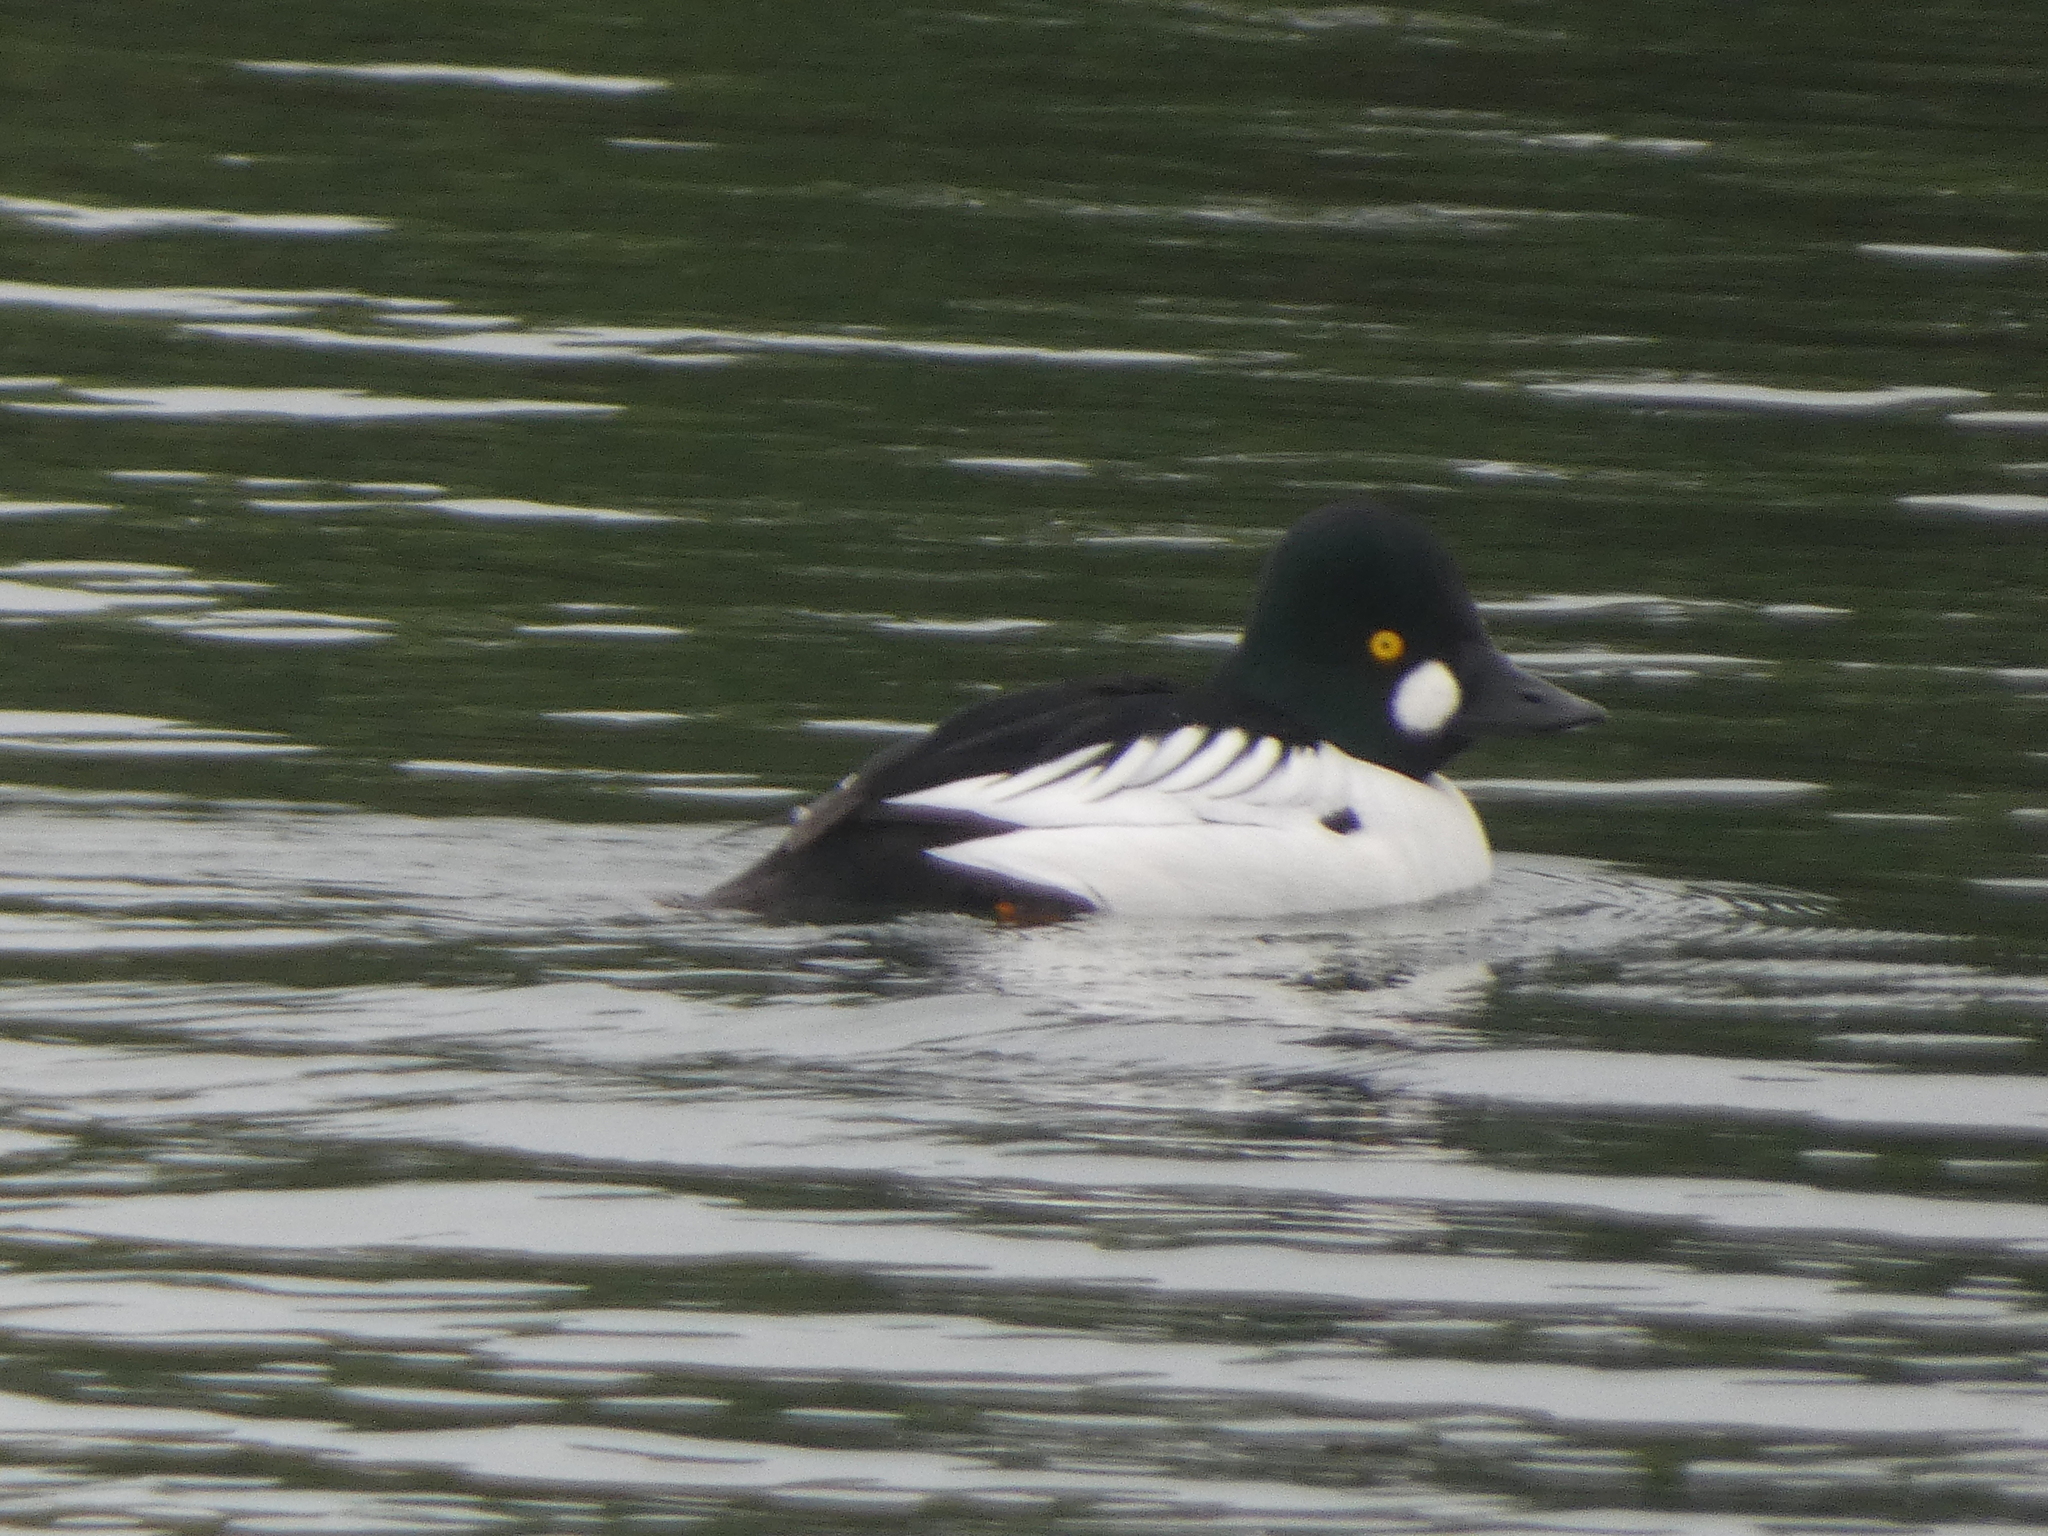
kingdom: Animalia
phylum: Chordata
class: Aves
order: Anseriformes
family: Anatidae
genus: Bucephala
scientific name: Bucephala clangula
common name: Common goldeneye
